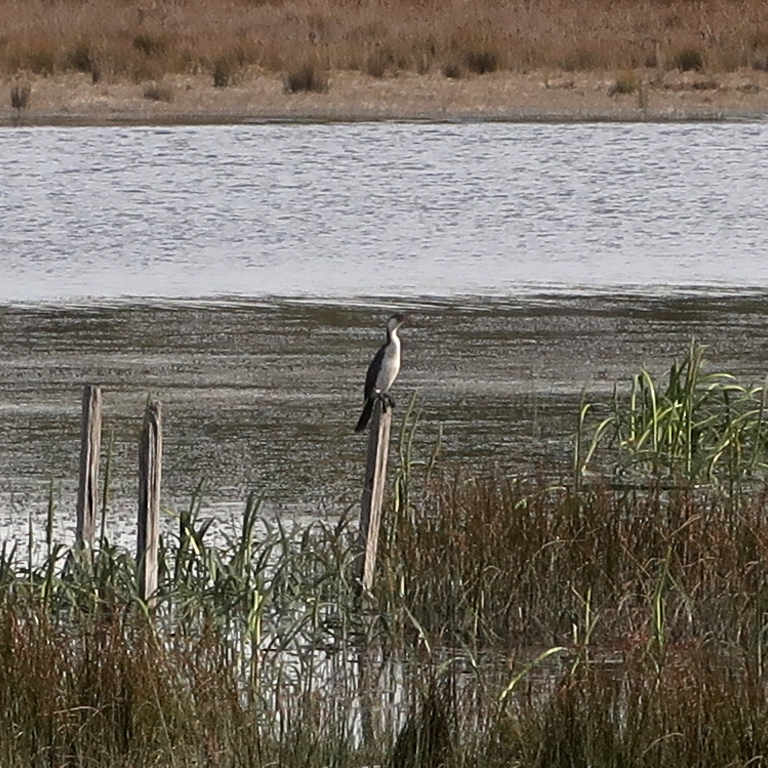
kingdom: Animalia
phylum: Chordata
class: Aves
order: Suliformes
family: Phalacrocoracidae
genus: Microcarbo
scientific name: Microcarbo melanoleucos
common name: Little pied cormorant
